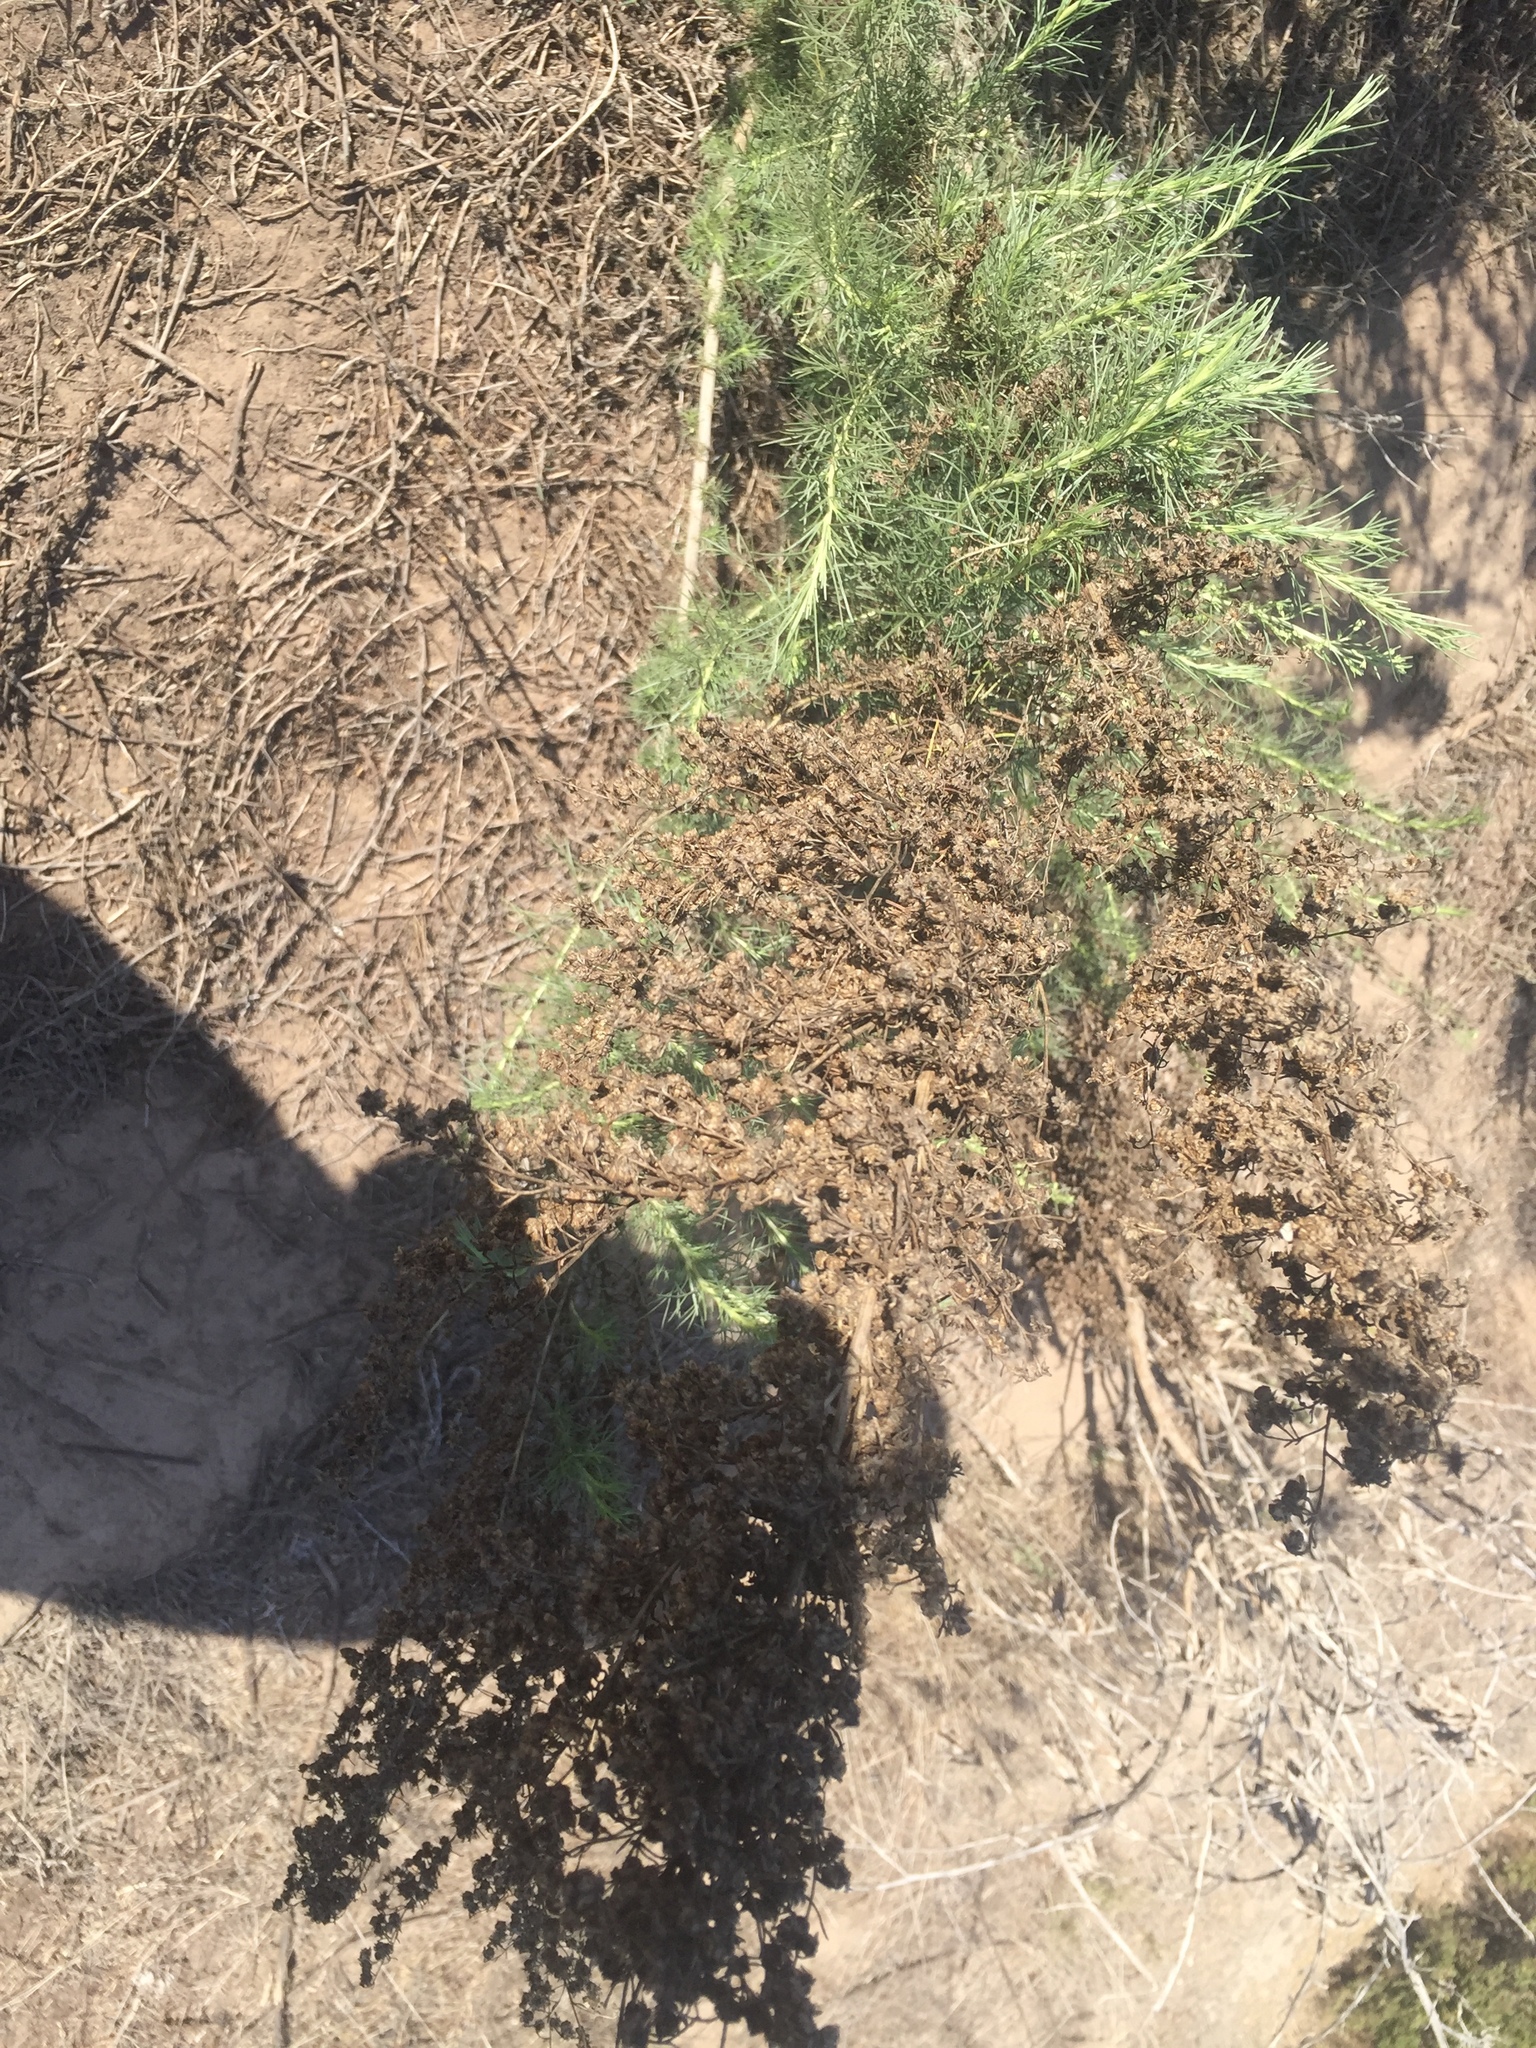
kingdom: Plantae
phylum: Tracheophyta
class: Magnoliopsida
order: Asterales
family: Asteraceae
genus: Artemisia
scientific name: Artemisia californica
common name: California sagebrush
